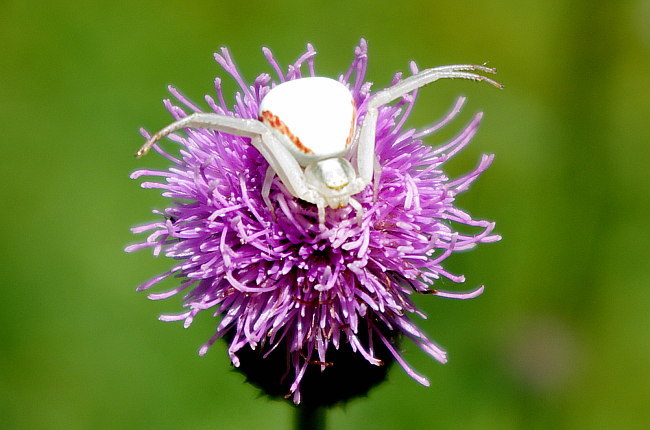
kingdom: Animalia
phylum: Arthropoda
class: Arachnida
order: Araneae
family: Thomisidae
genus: Misumena
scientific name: Misumena vatia
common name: Goldenrod crab spider
